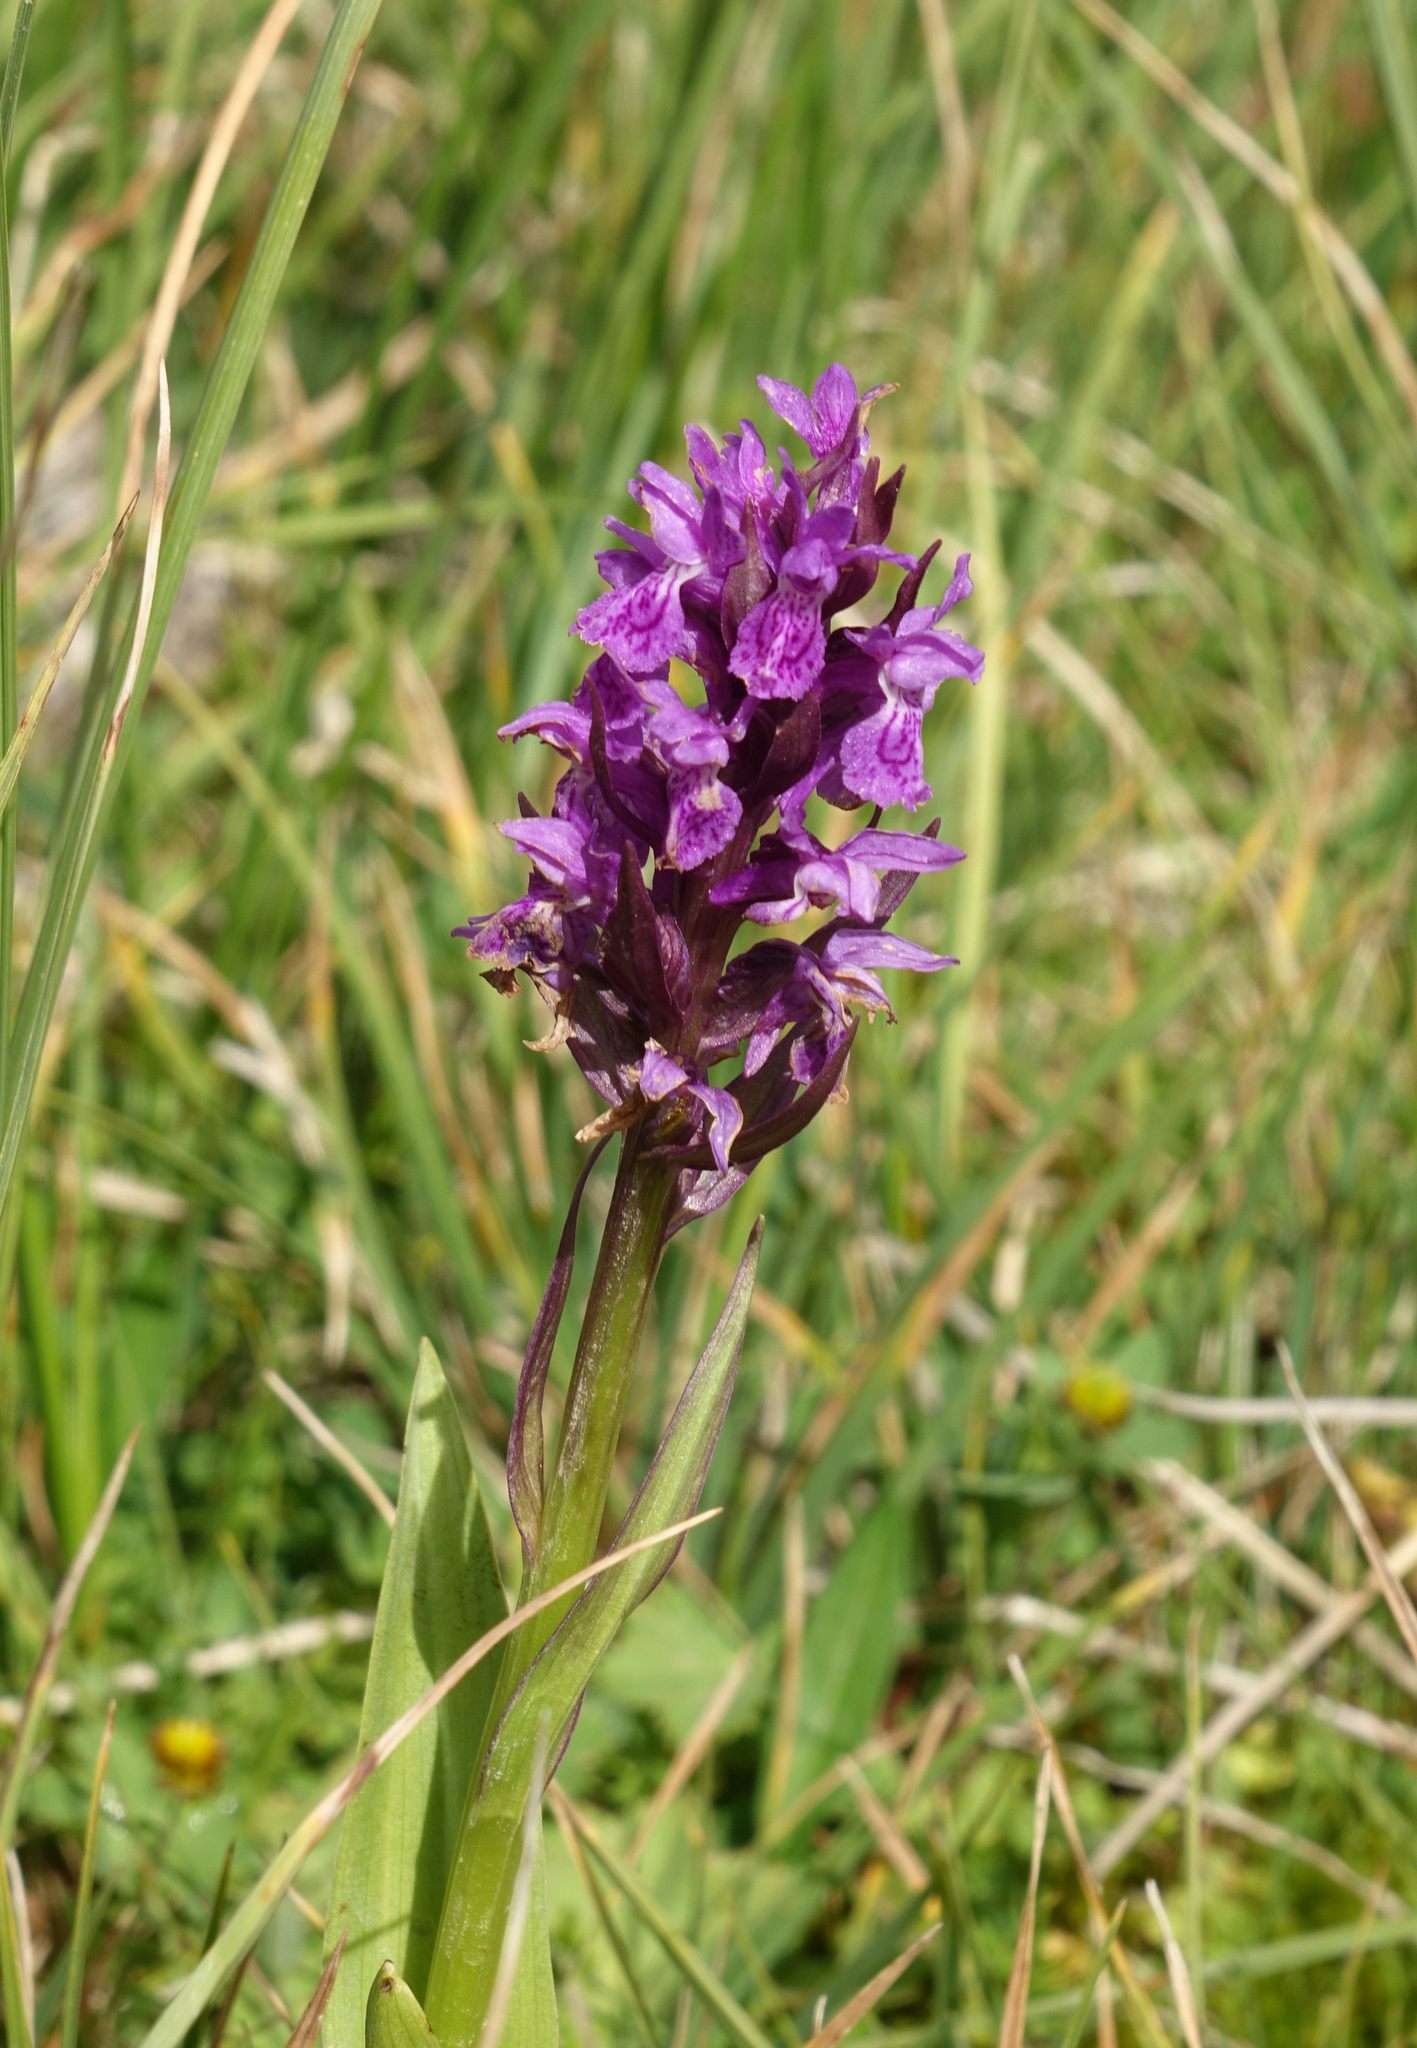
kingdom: Plantae
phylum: Tracheophyta
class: Liliopsida
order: Asparagales
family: Orchidaceae
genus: Dactylorhiza
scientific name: Dactylorhiza incarnata
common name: Early marsh-orchid
